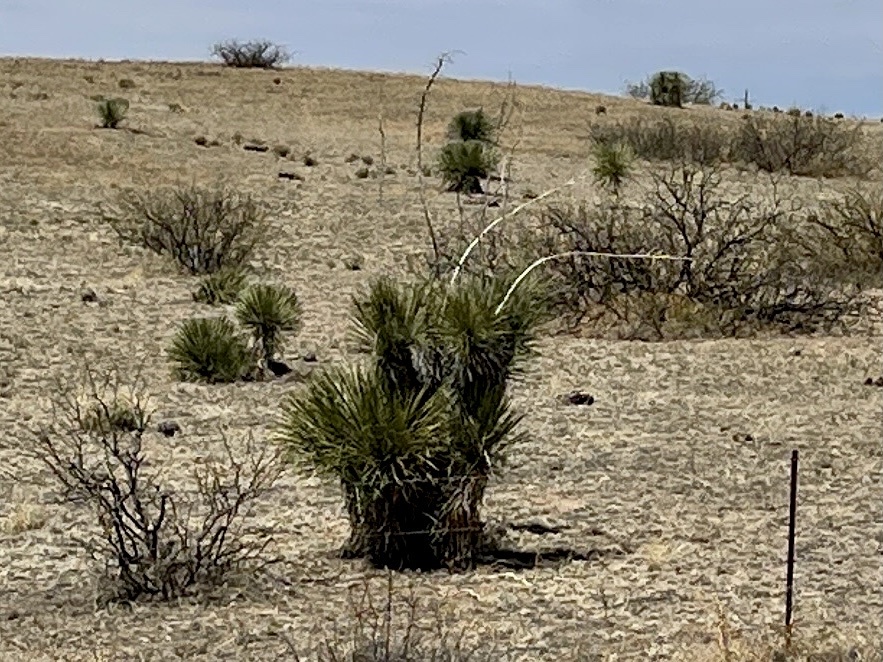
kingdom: Plantae
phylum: Tracheophyta
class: Liliopsida
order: Asparagales
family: Asparagaceae
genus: Yucca
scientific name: Yucca elata
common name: Palmella
